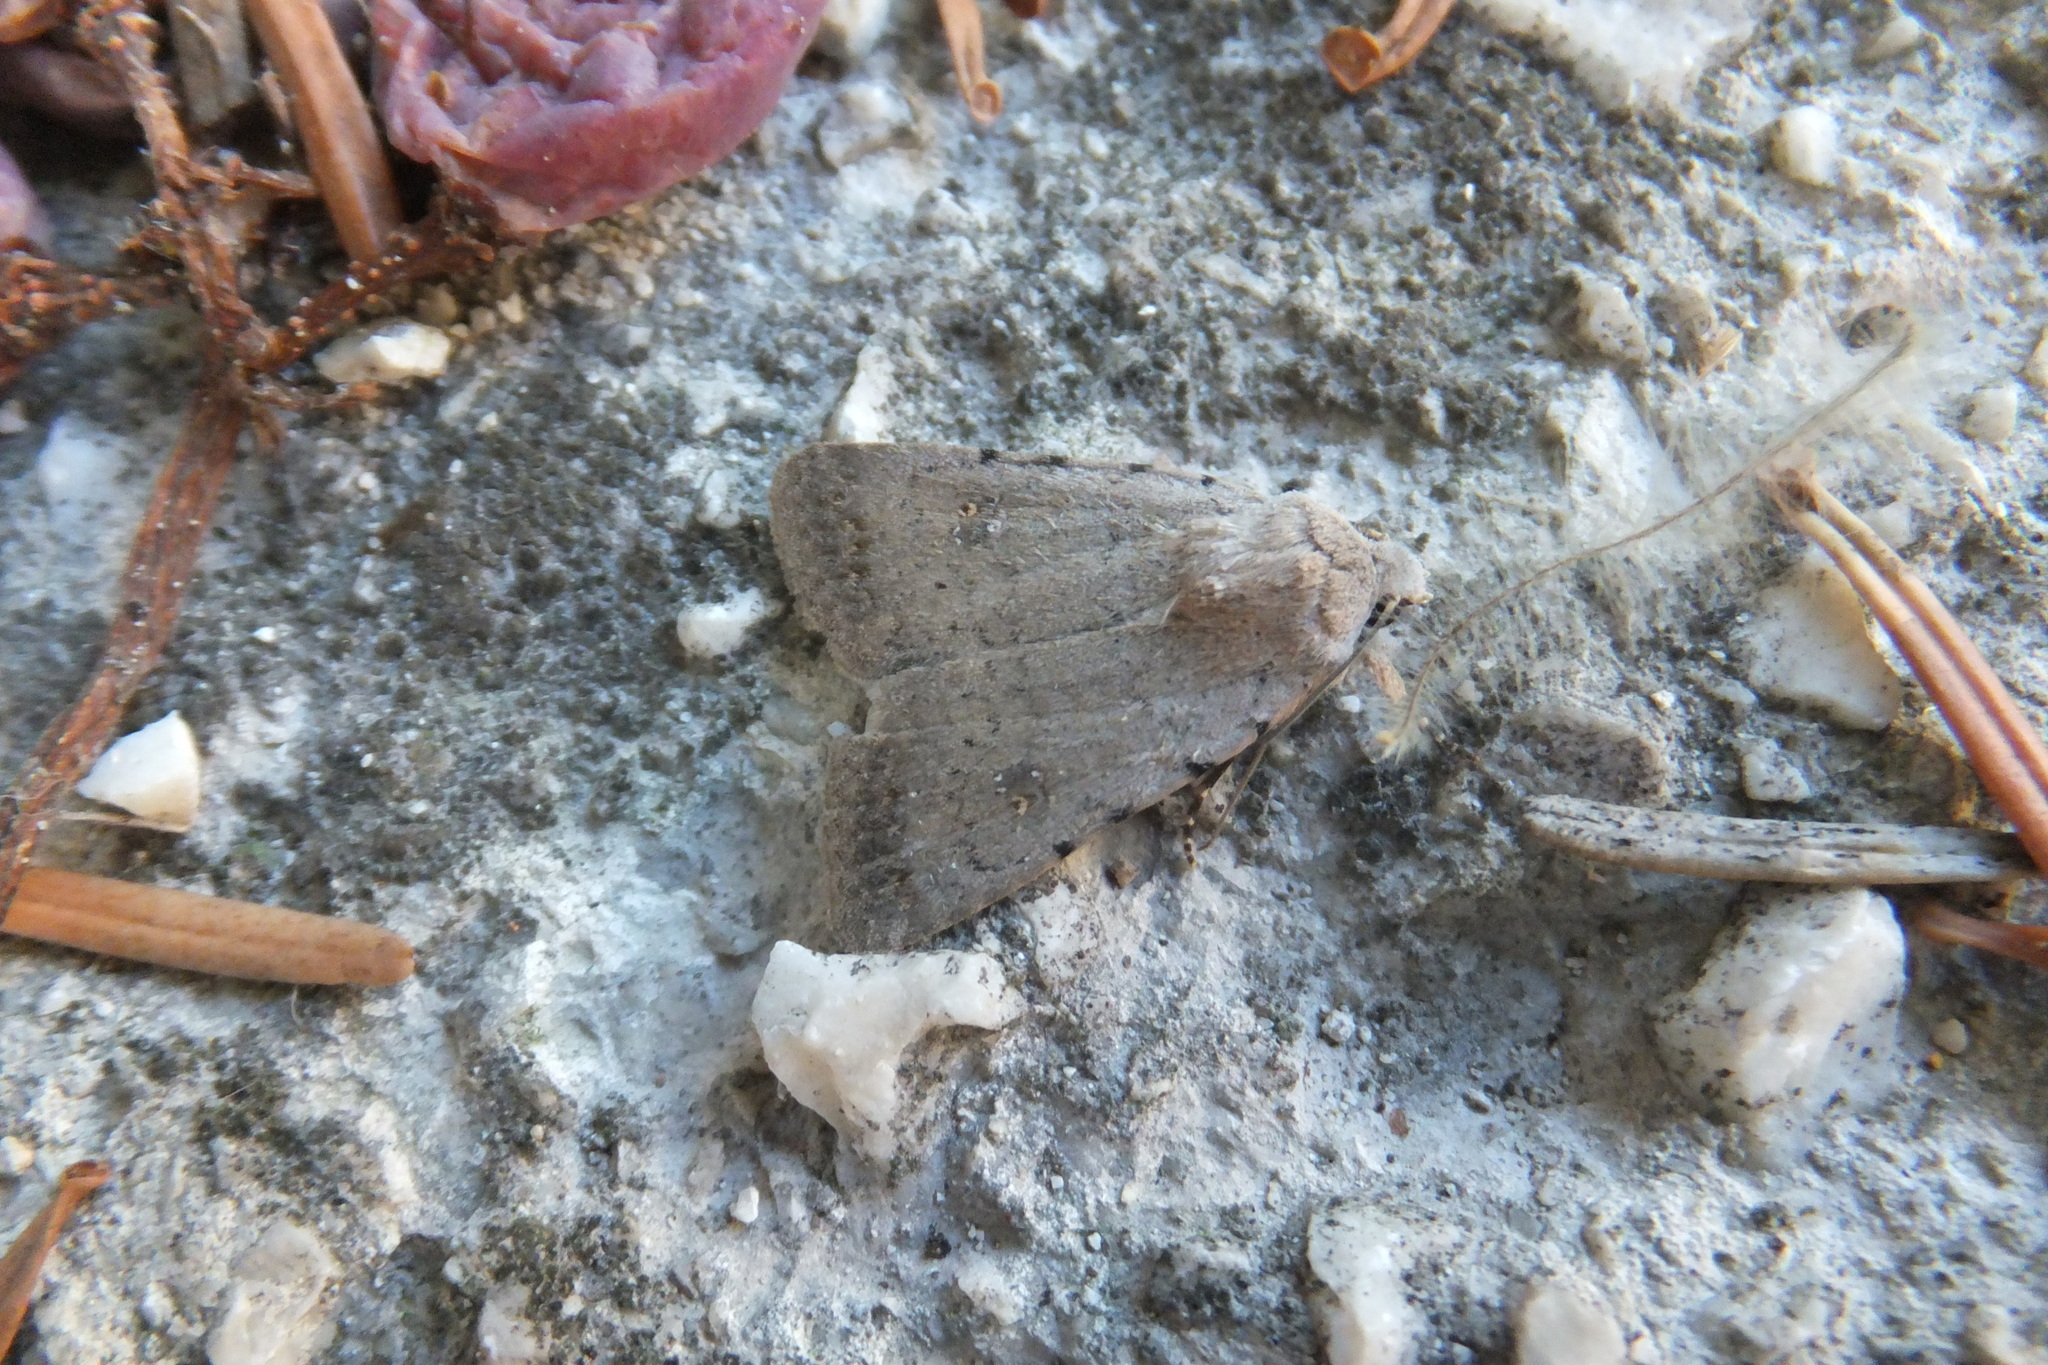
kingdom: Animalia
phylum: Arthropoda
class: Insecta
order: Lepidoptera
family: Noctuidae
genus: Caradrina
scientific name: Caradrina clavipalpis
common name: Pale mottled willow
